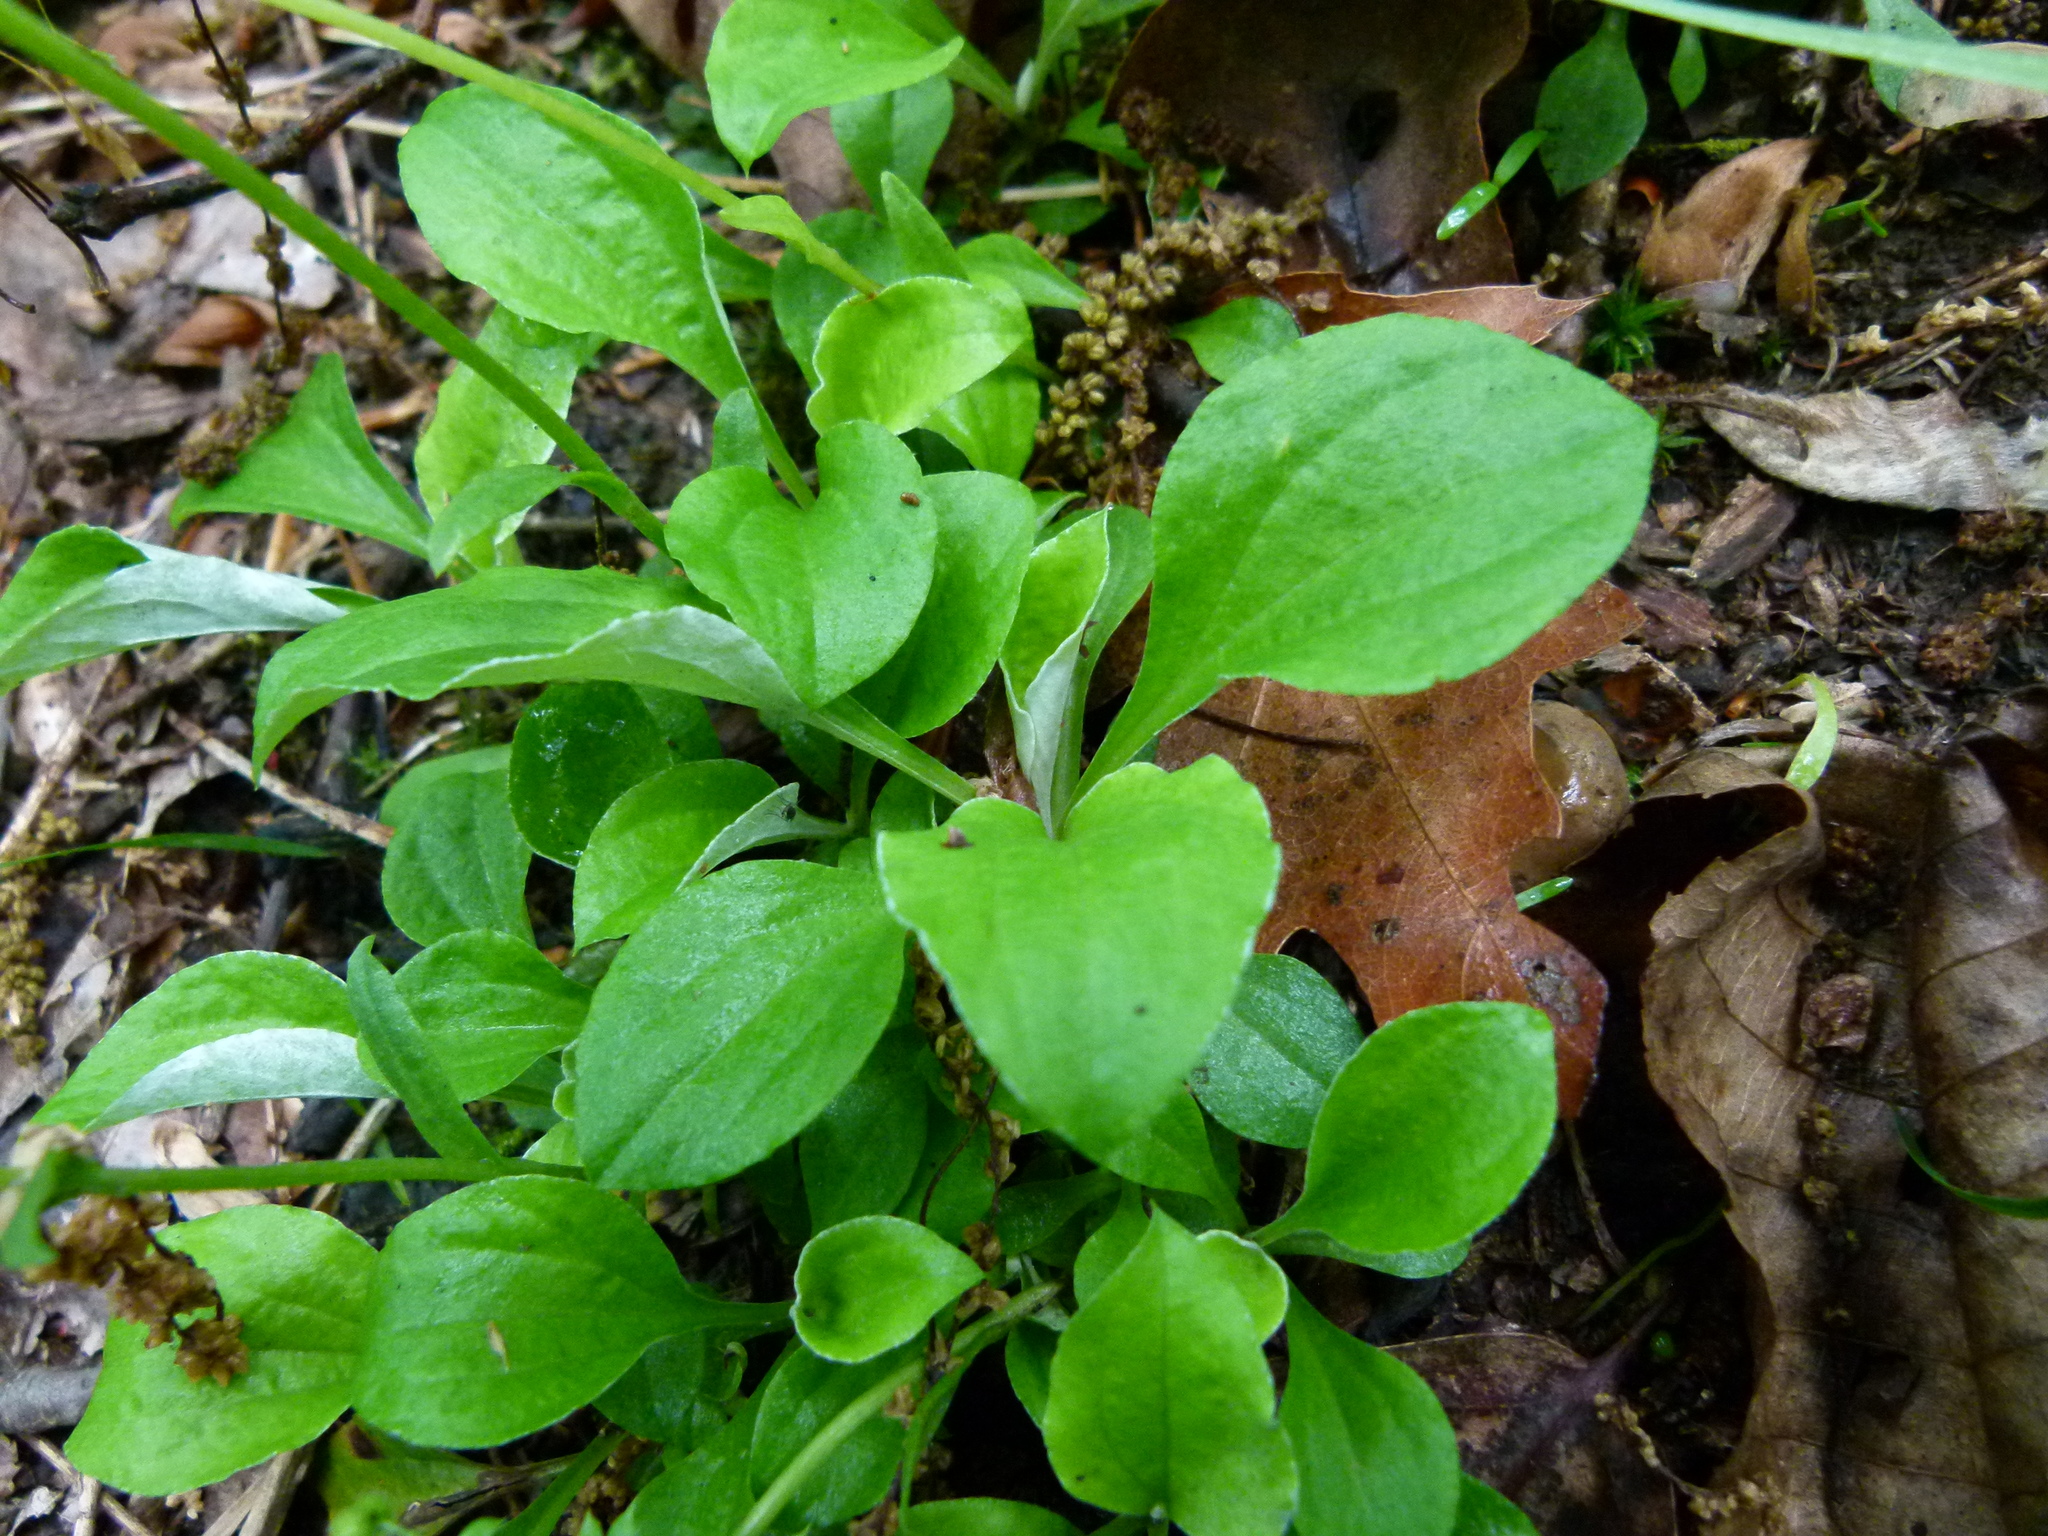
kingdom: Plantae
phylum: Tracheophyta
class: Magnoliopsida
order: Asterales
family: Asteraceae
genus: Antennaria
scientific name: Antennaria plantaginifolia
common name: Plantain-leaved pussytoes
